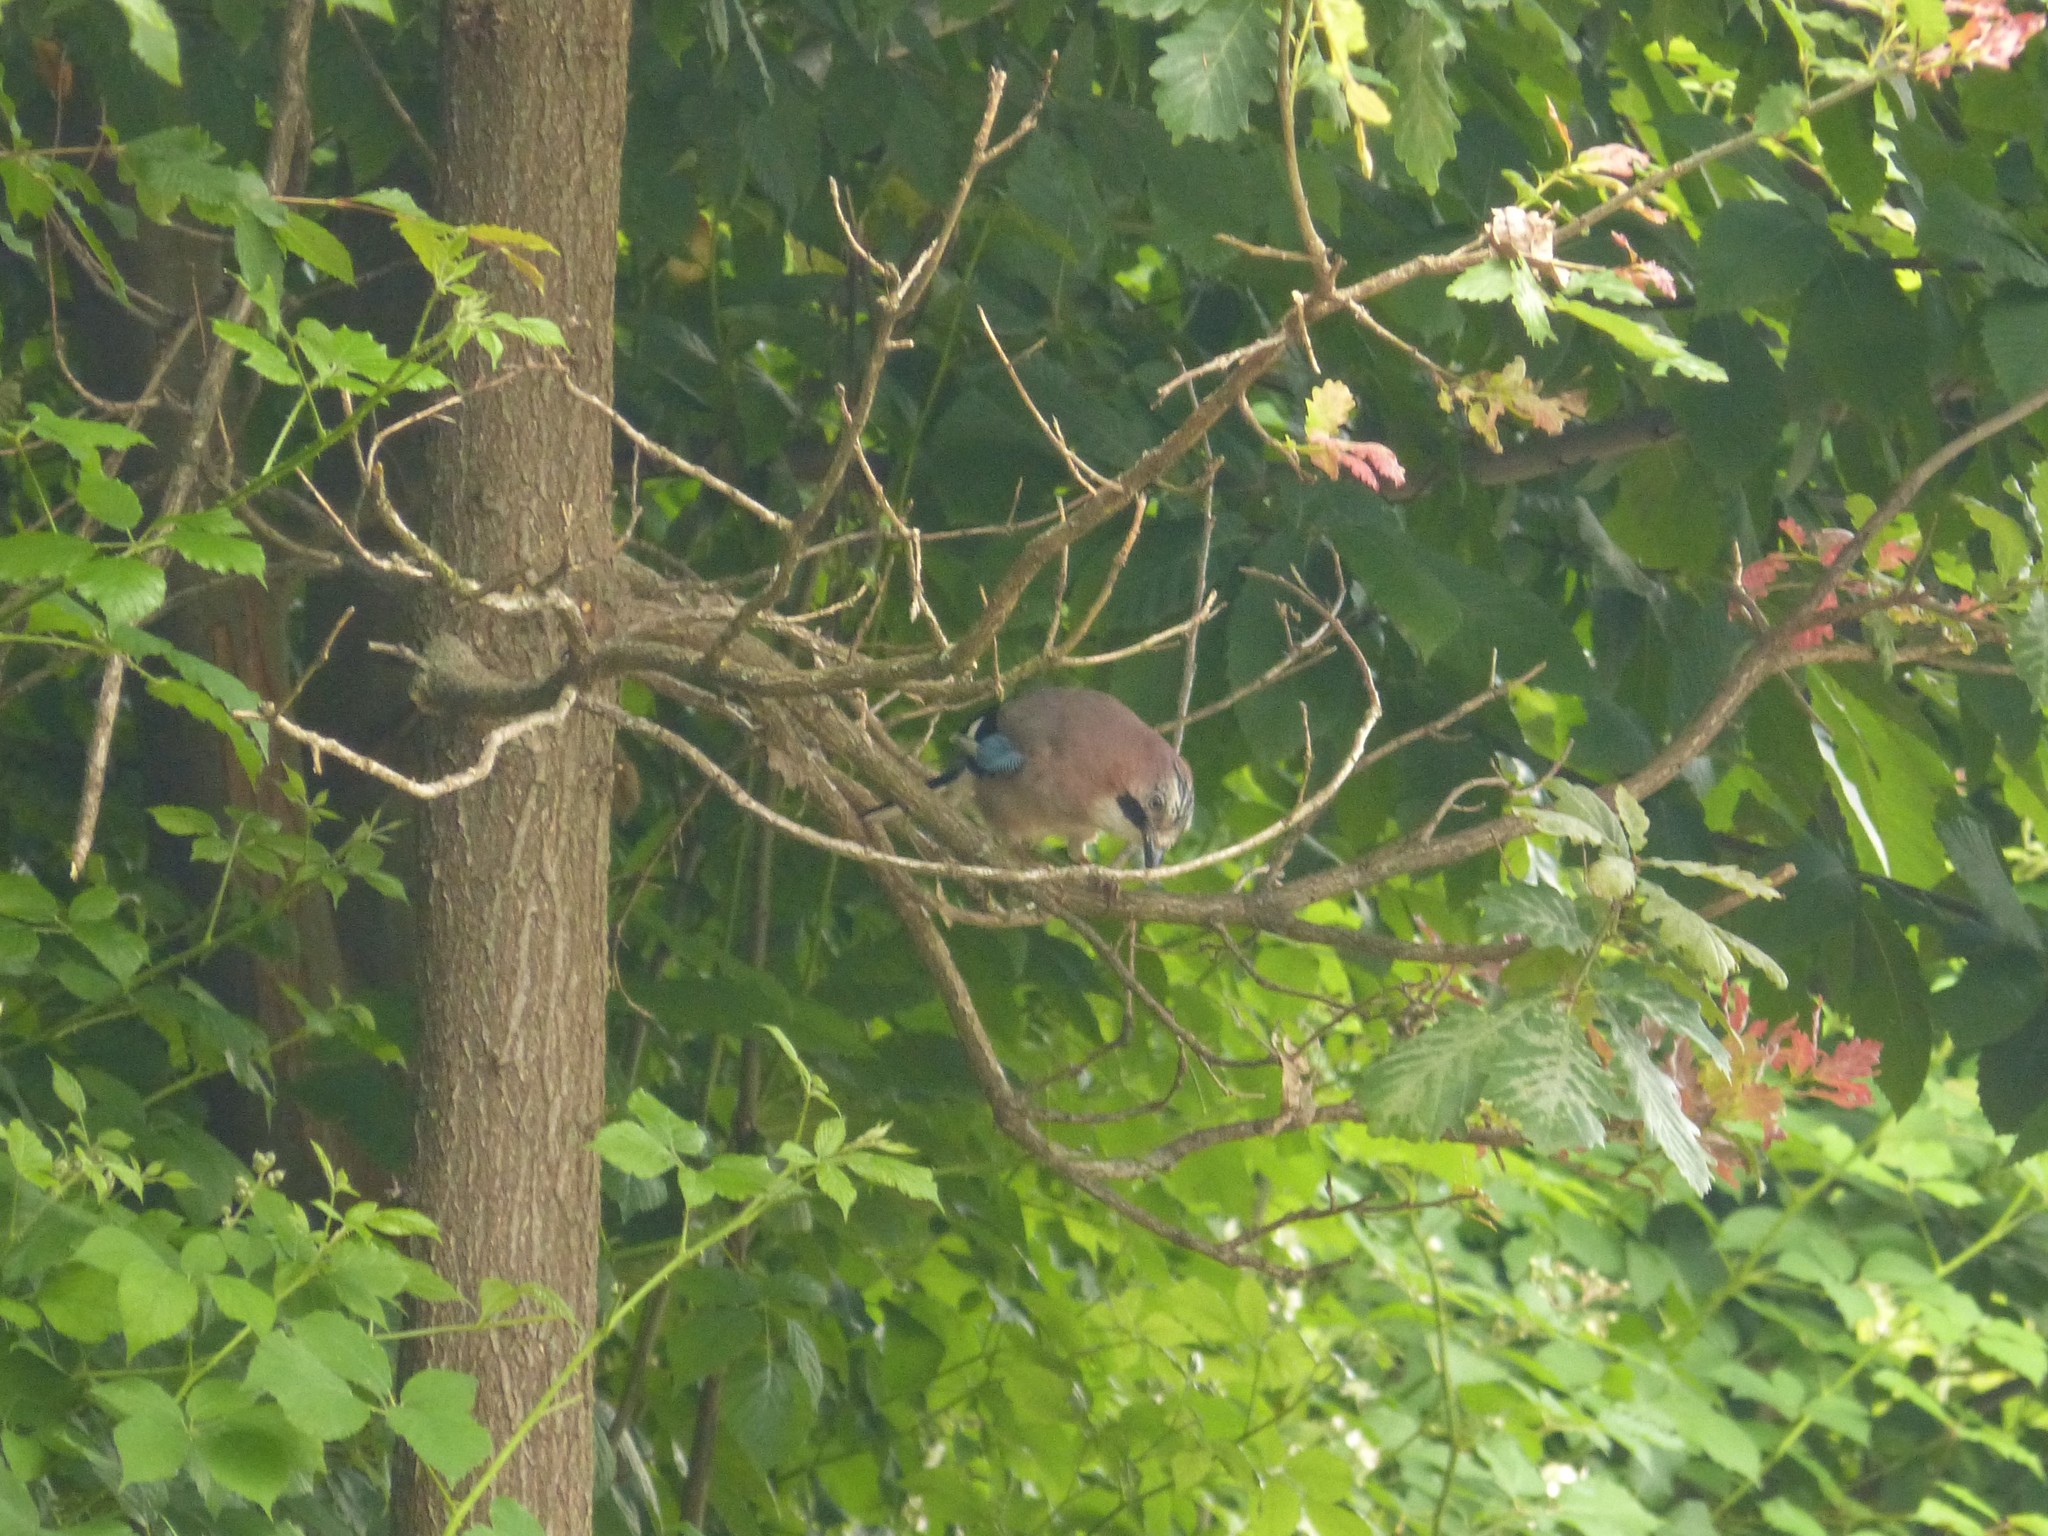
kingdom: Animalia
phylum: Chordata
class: Aves
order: Passeriformes
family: Corvidae
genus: Garrulus
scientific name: Garrulus glandarius
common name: Eurasian jay
